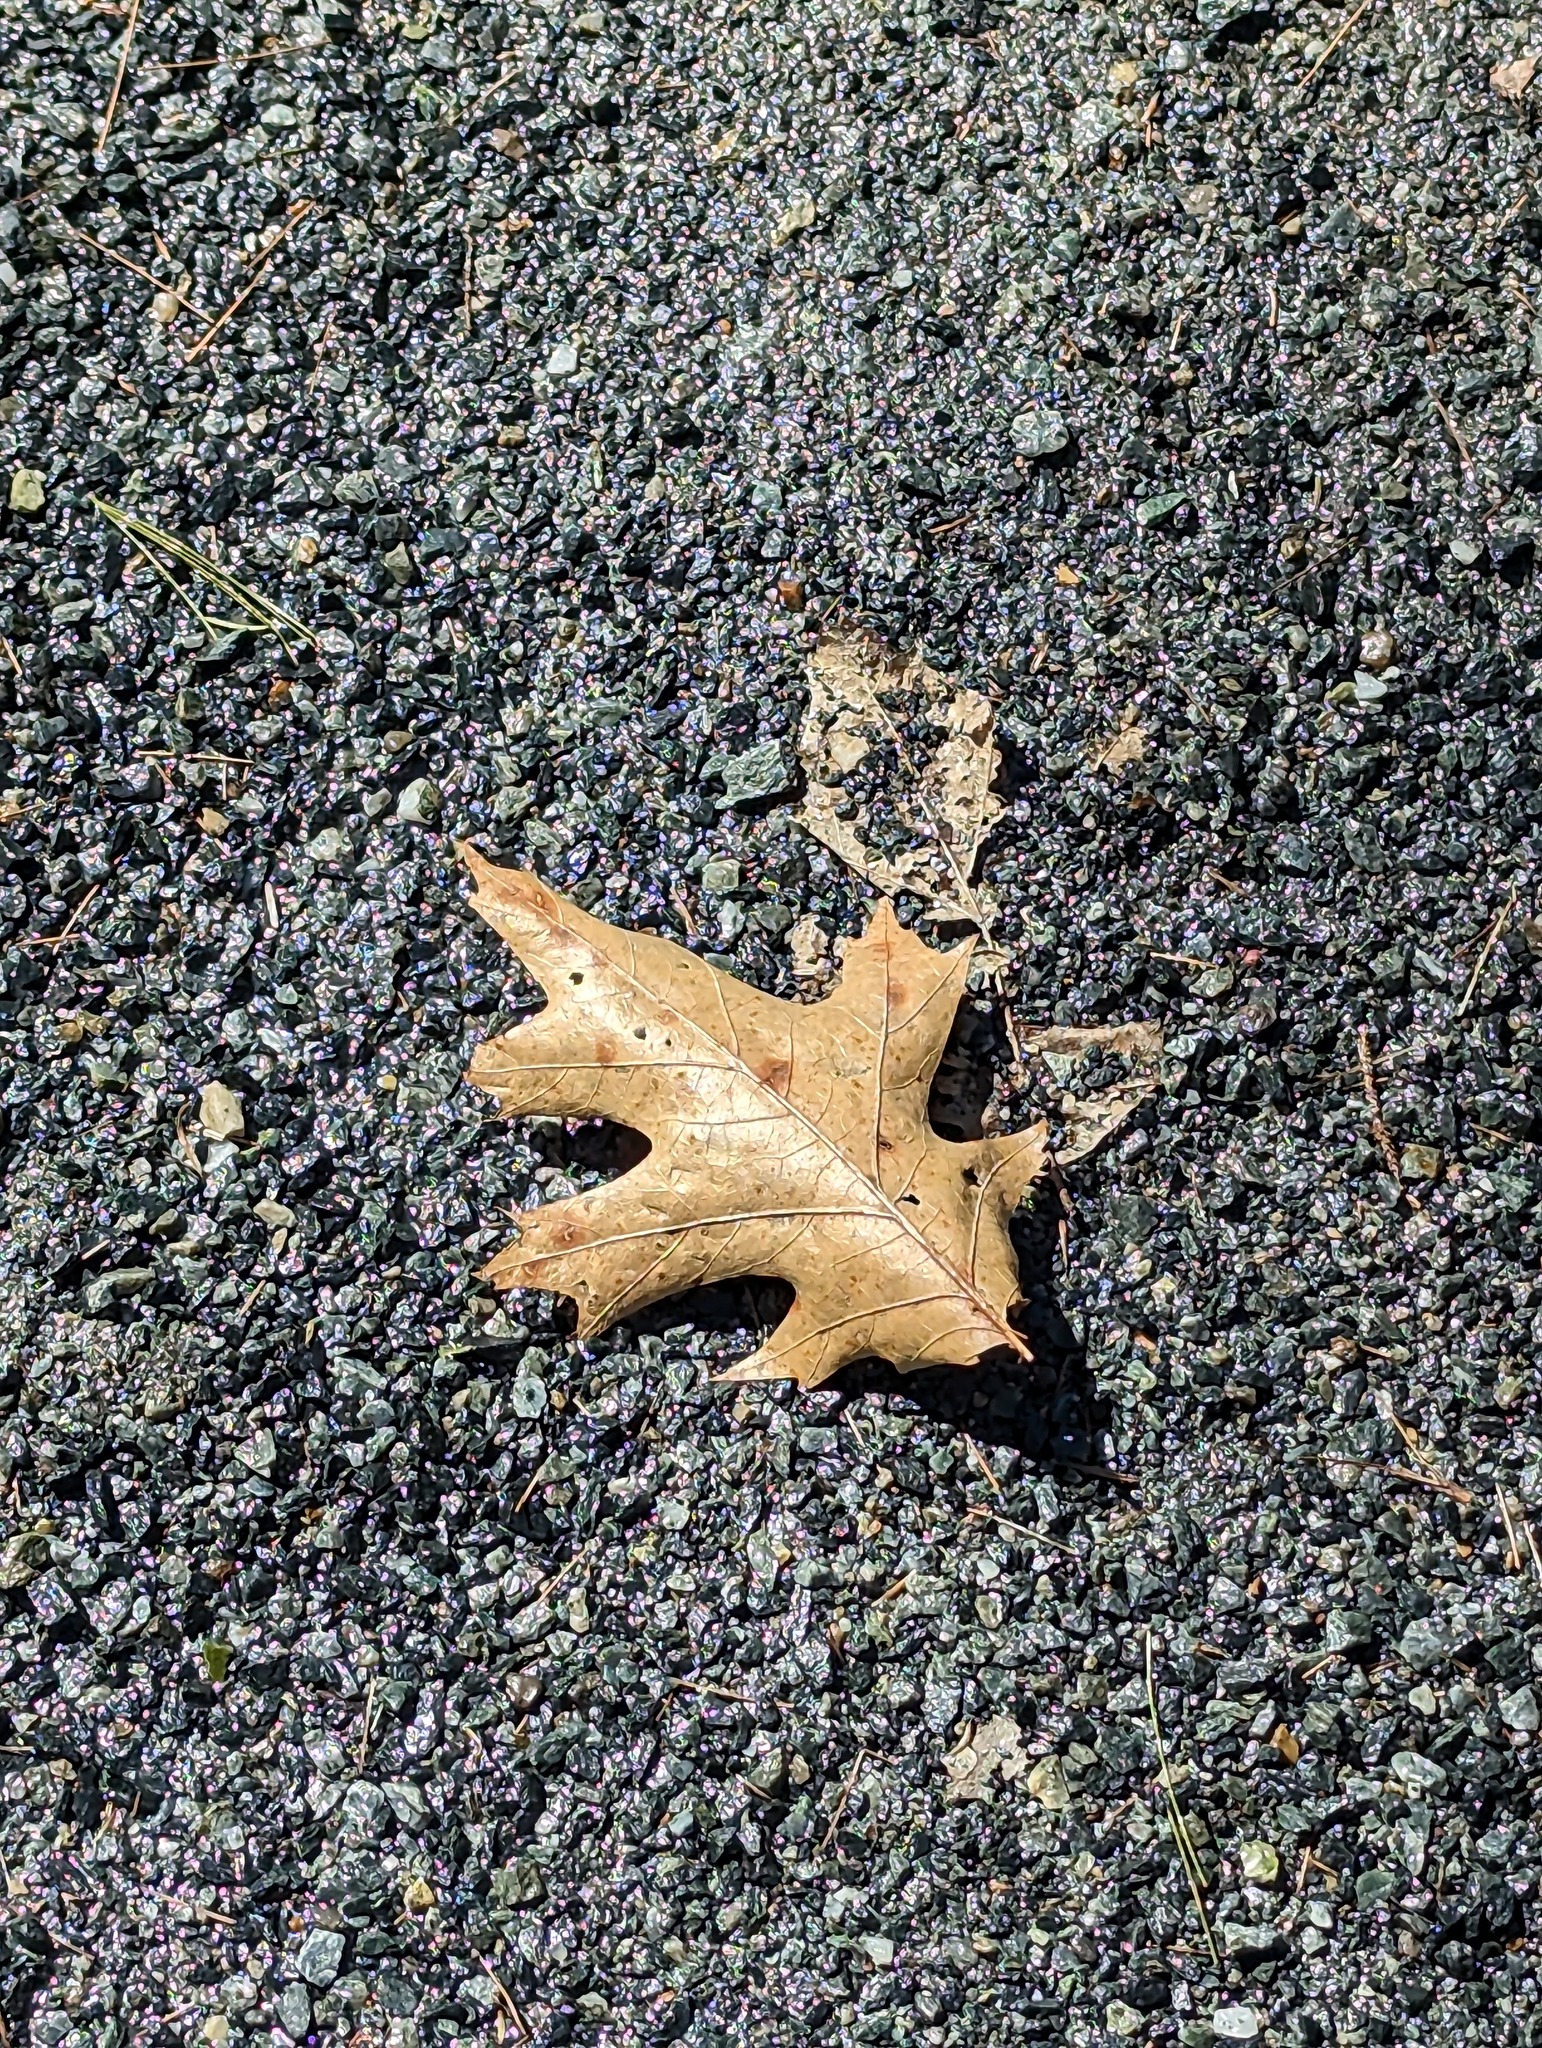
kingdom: Plantae
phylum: Tracheophyta
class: Magnoliopsida
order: Fagales
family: Fagaceae
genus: Quercus
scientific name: Quercus rubra
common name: Red oak
